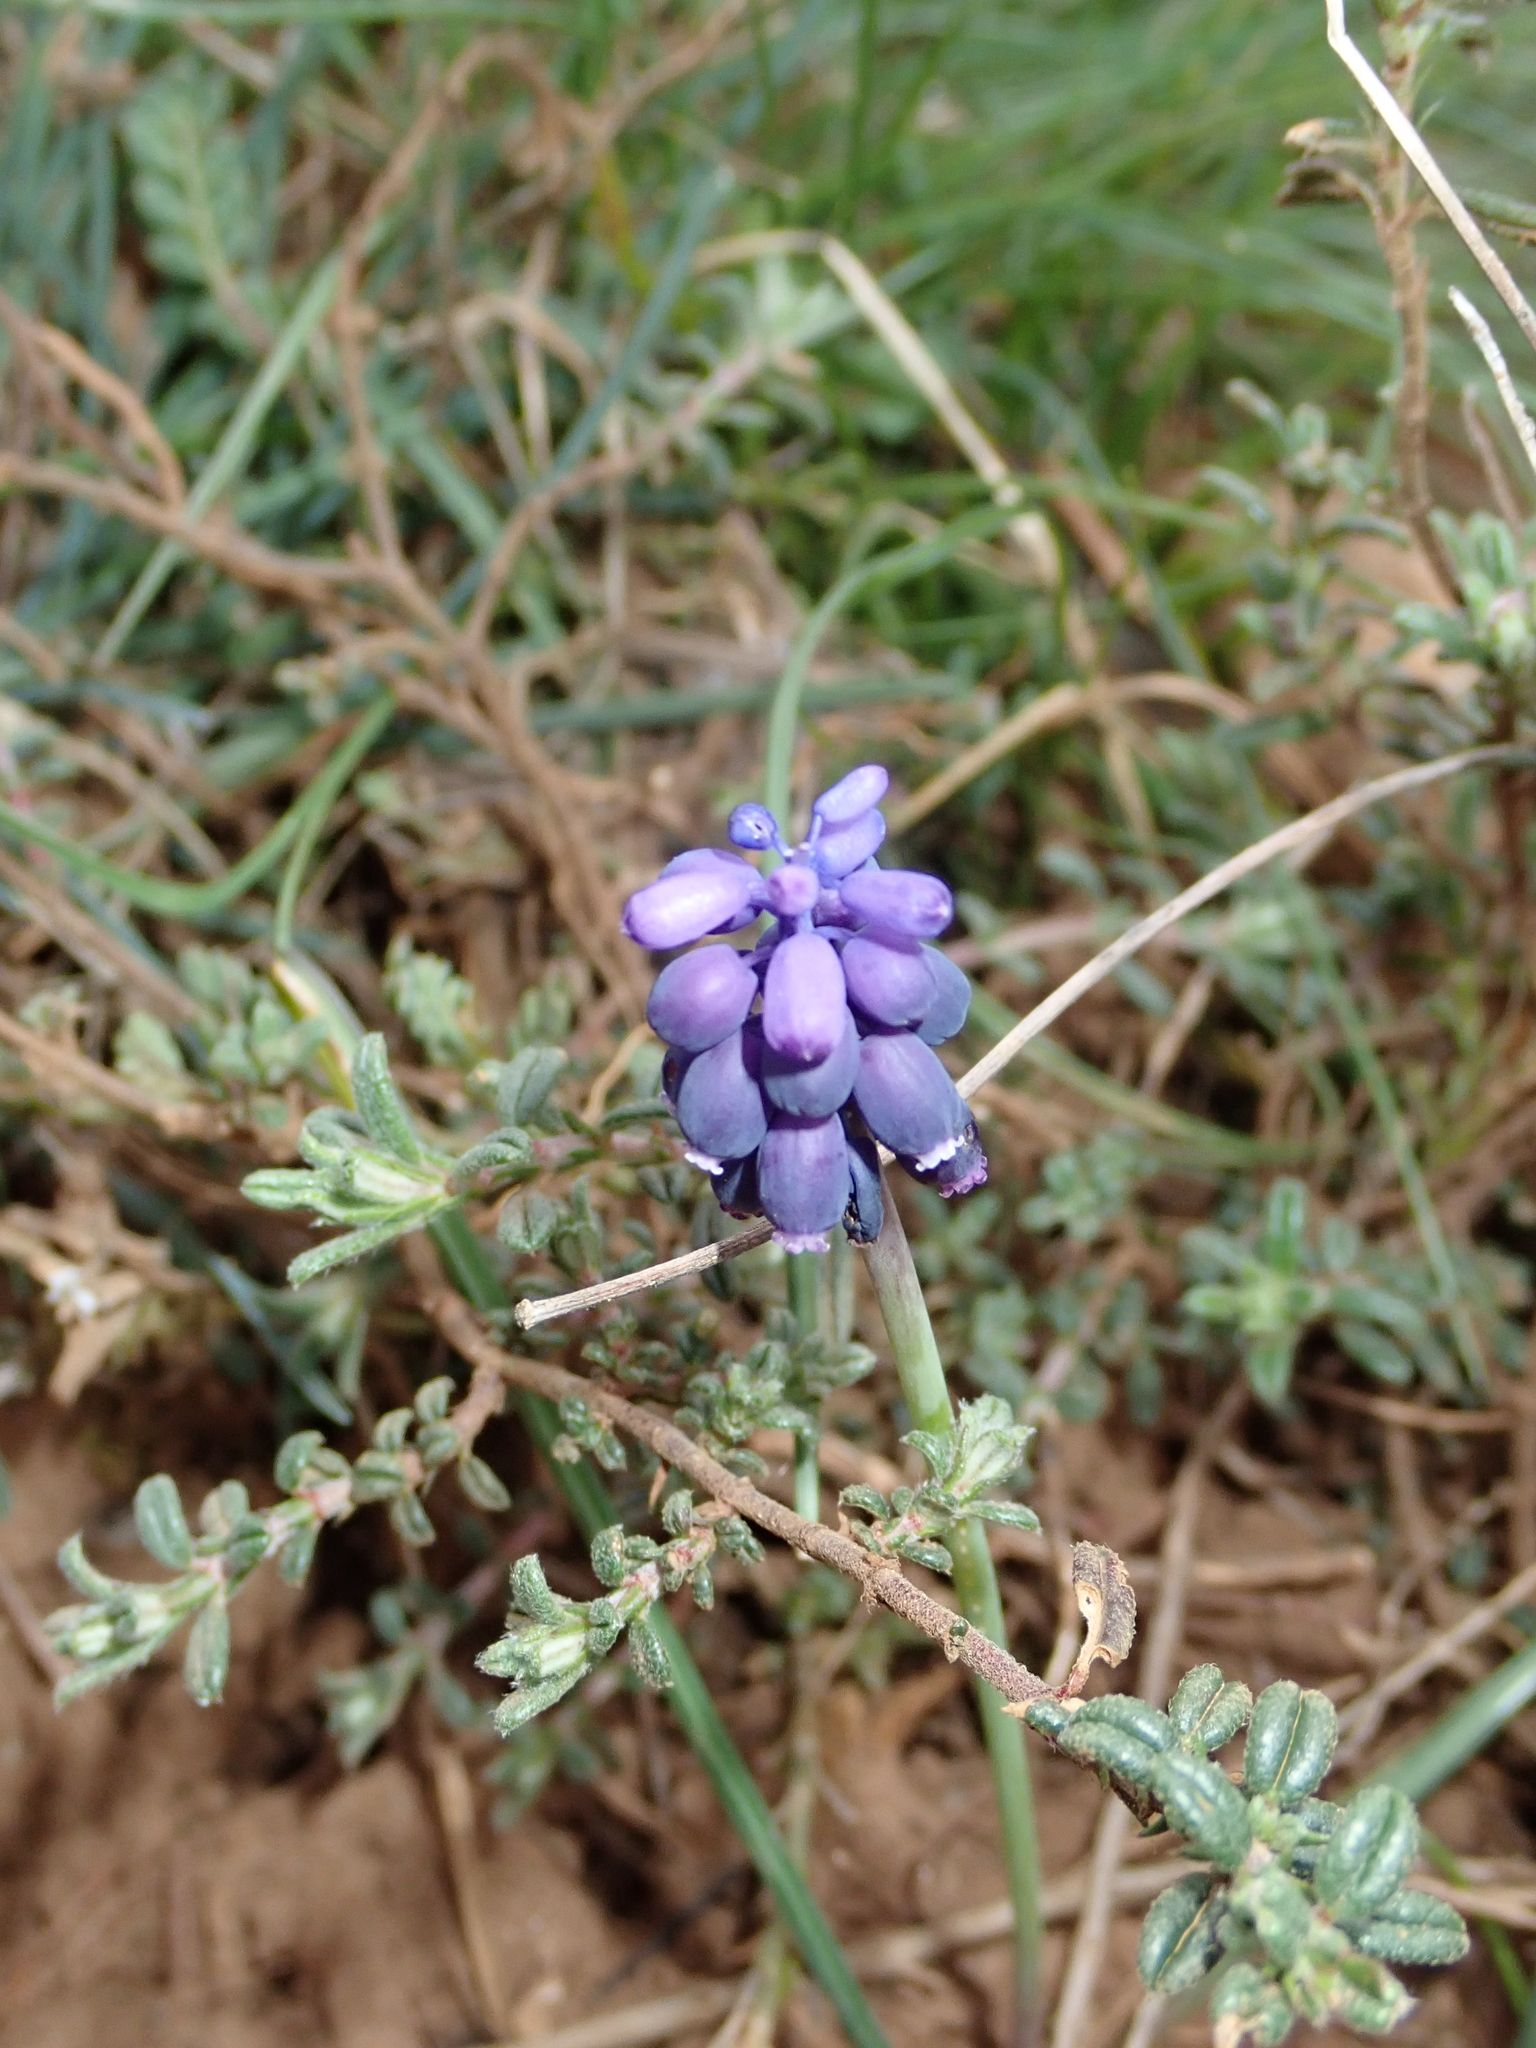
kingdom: Plantae
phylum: Tracheophyta
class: Liliopsida
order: Asparagales
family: Asparagaceae
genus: Muscari
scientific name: Muscari neglectum
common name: Grape-hyacinth
